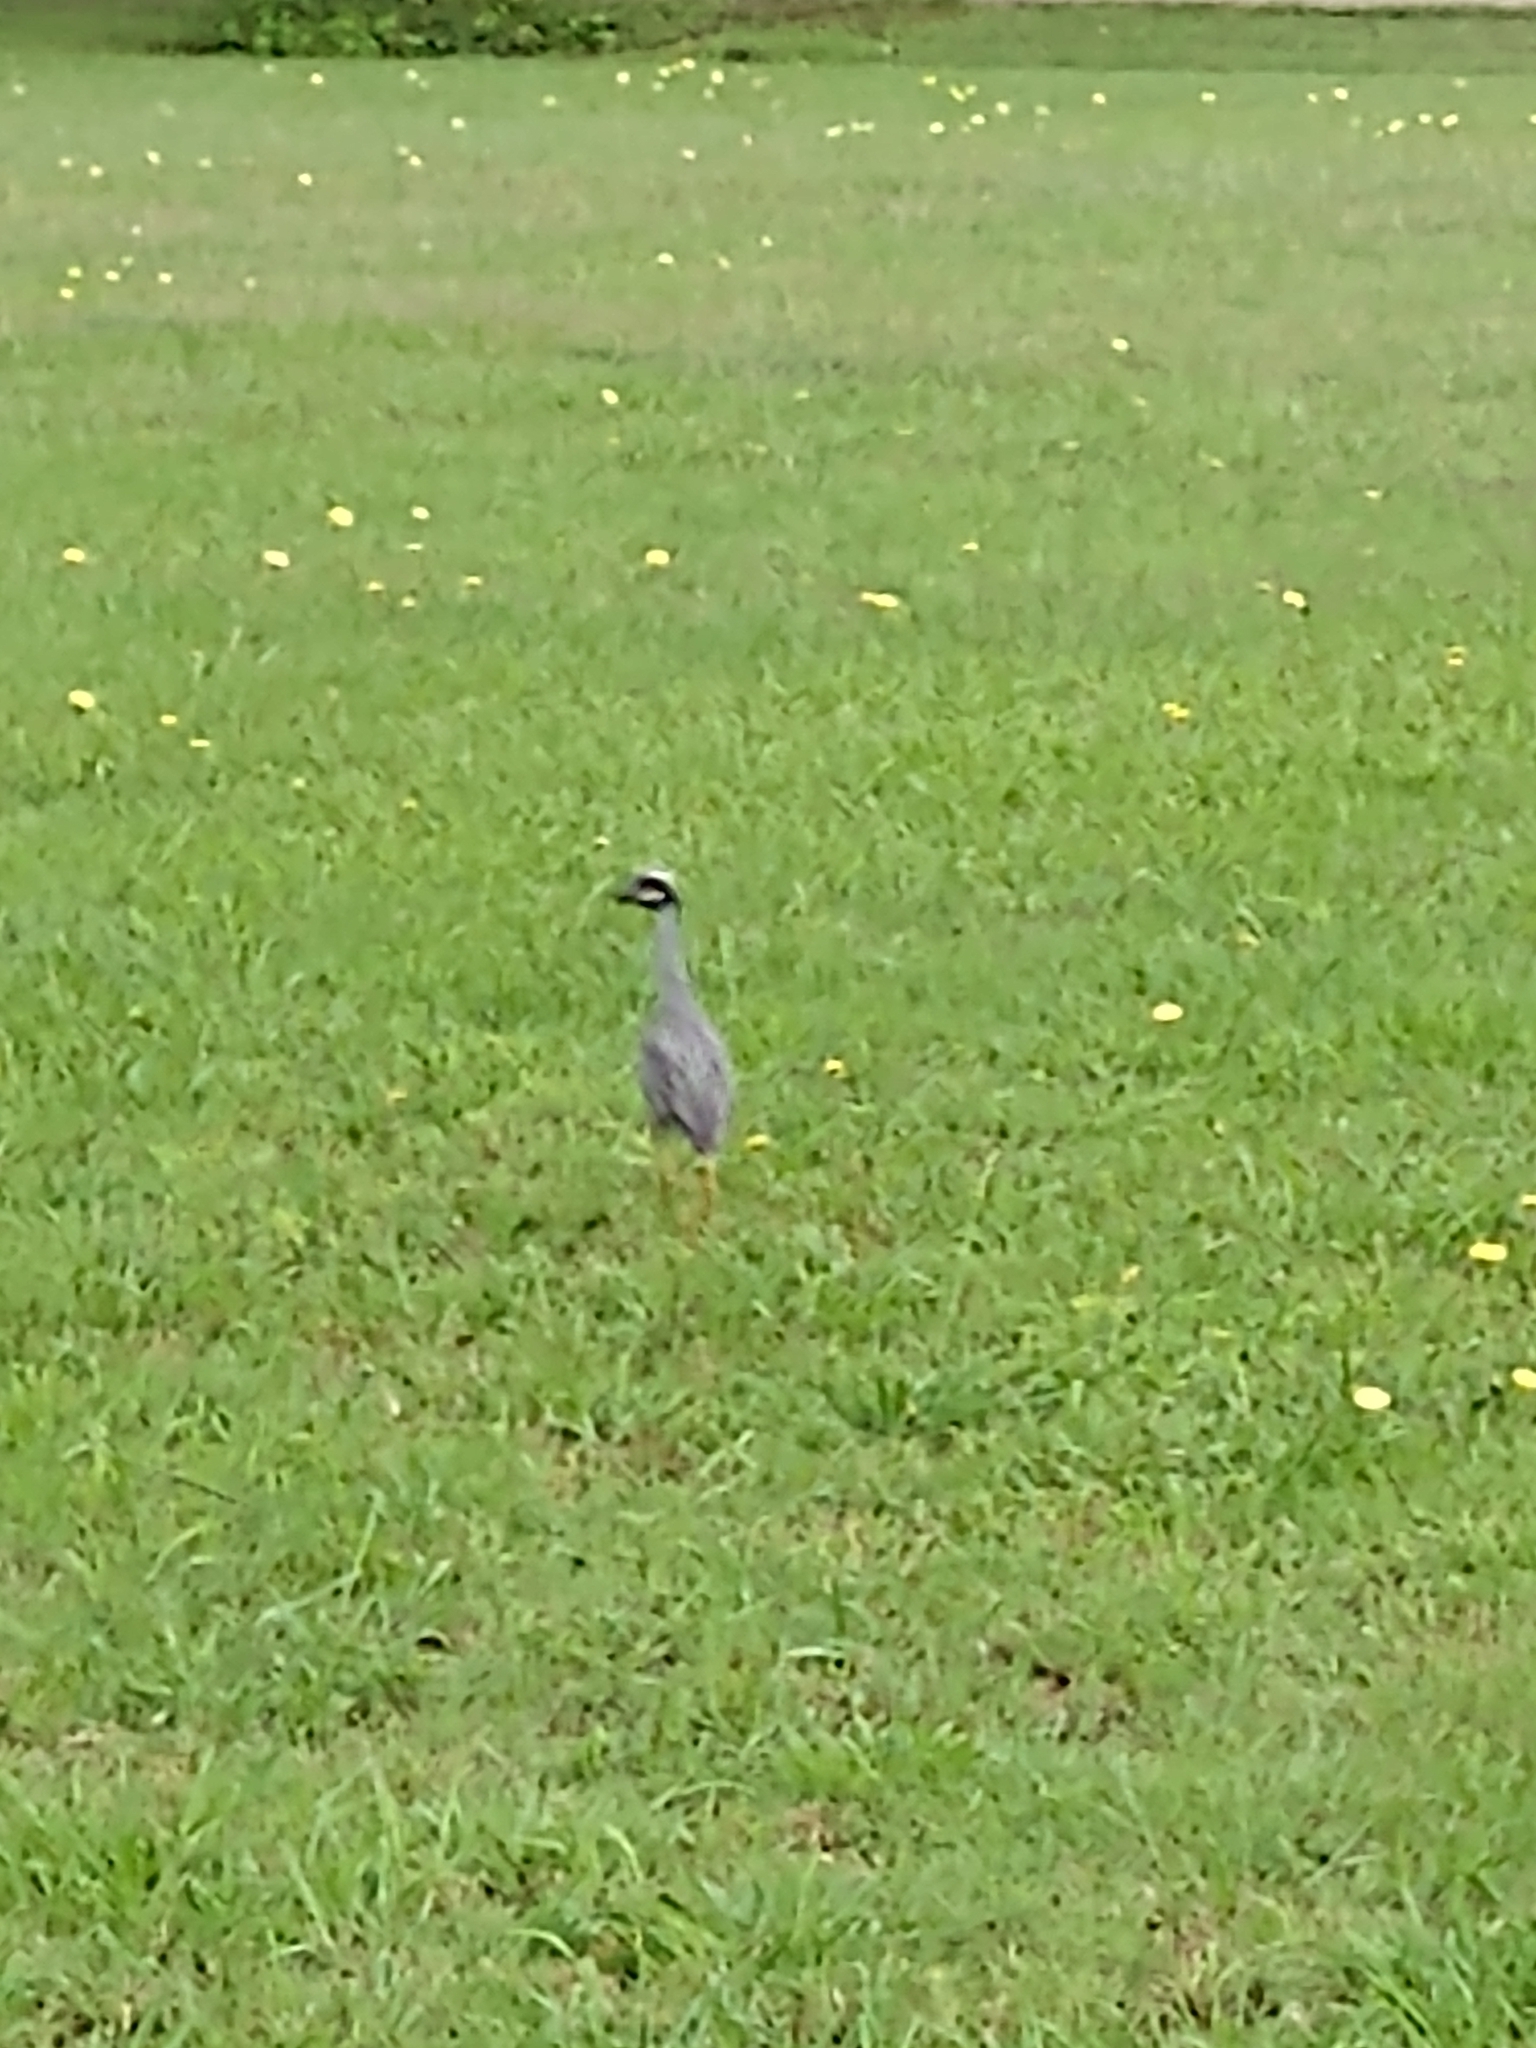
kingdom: Animalia
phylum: Chordata
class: Aves
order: Pelecaniformes
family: Ardeidae
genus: Nyctanassa
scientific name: Nyctanassa violacea
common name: Yellow-crowned night heron
